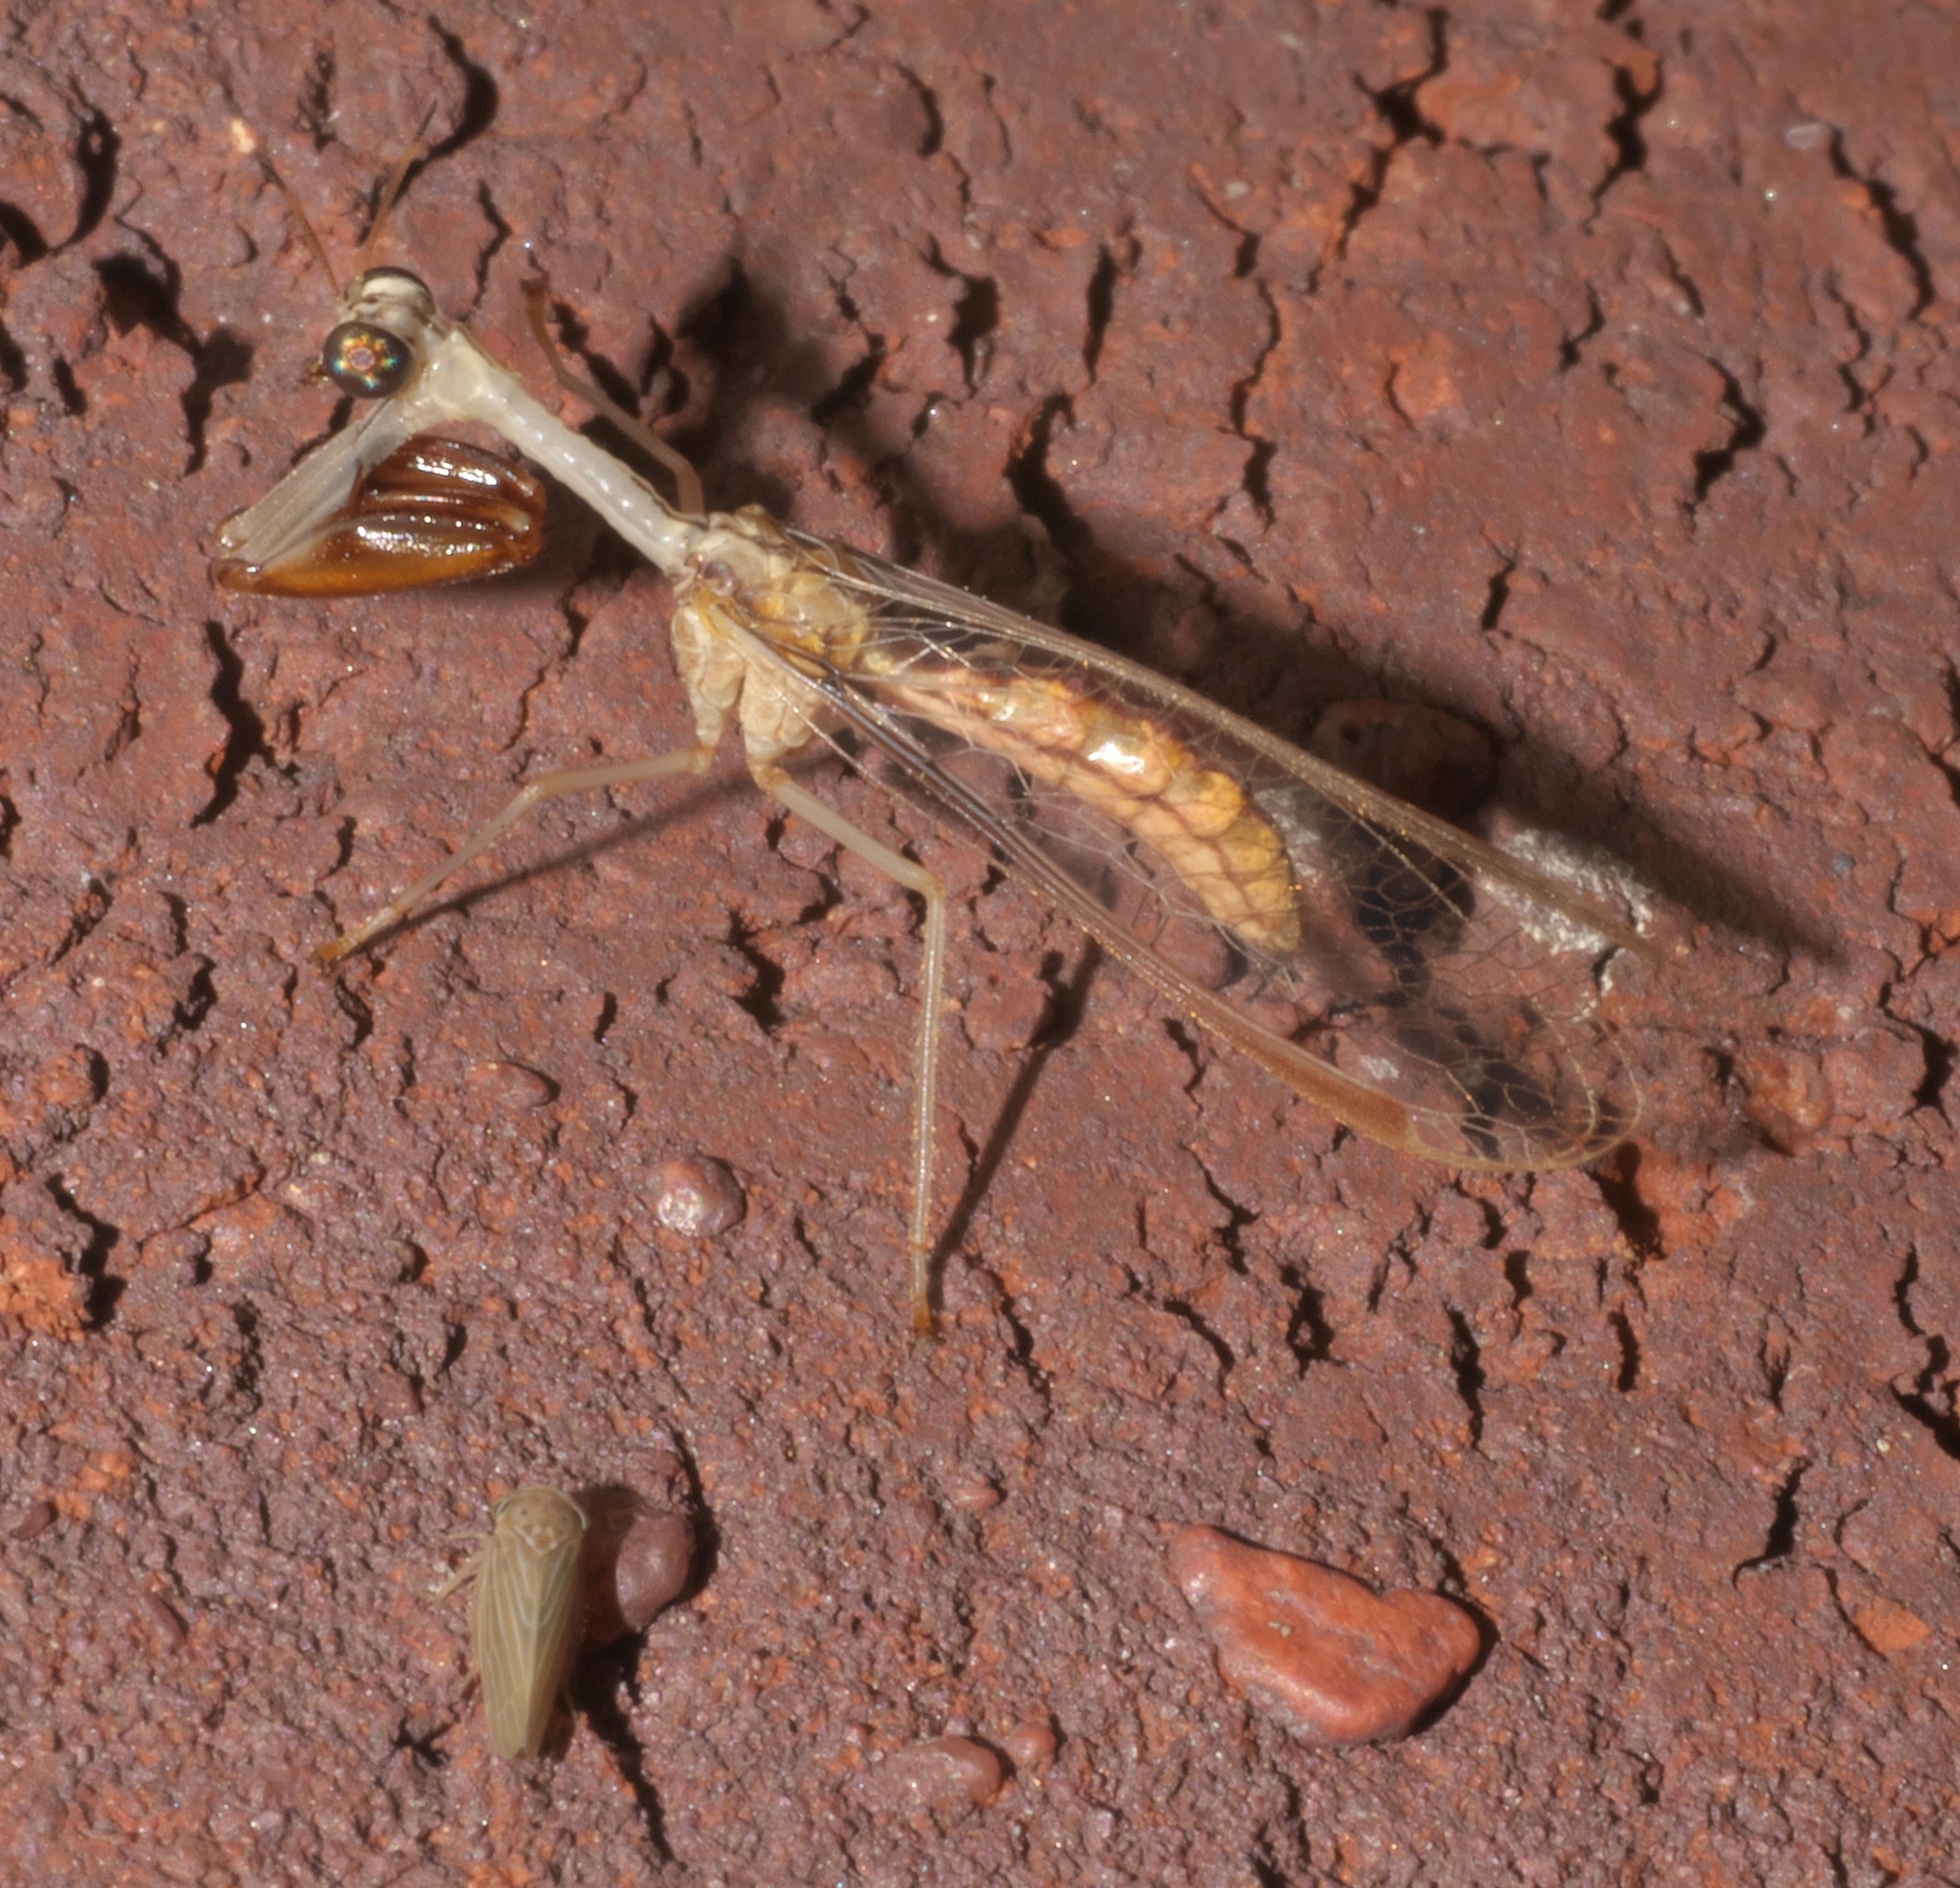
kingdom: Animalia
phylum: Arthropoda
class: Insecta
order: Neuroptera
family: Mantispidae
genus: Dicromantispa
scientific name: Dicromantispa interrupta
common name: Four-spotted mantidfly
